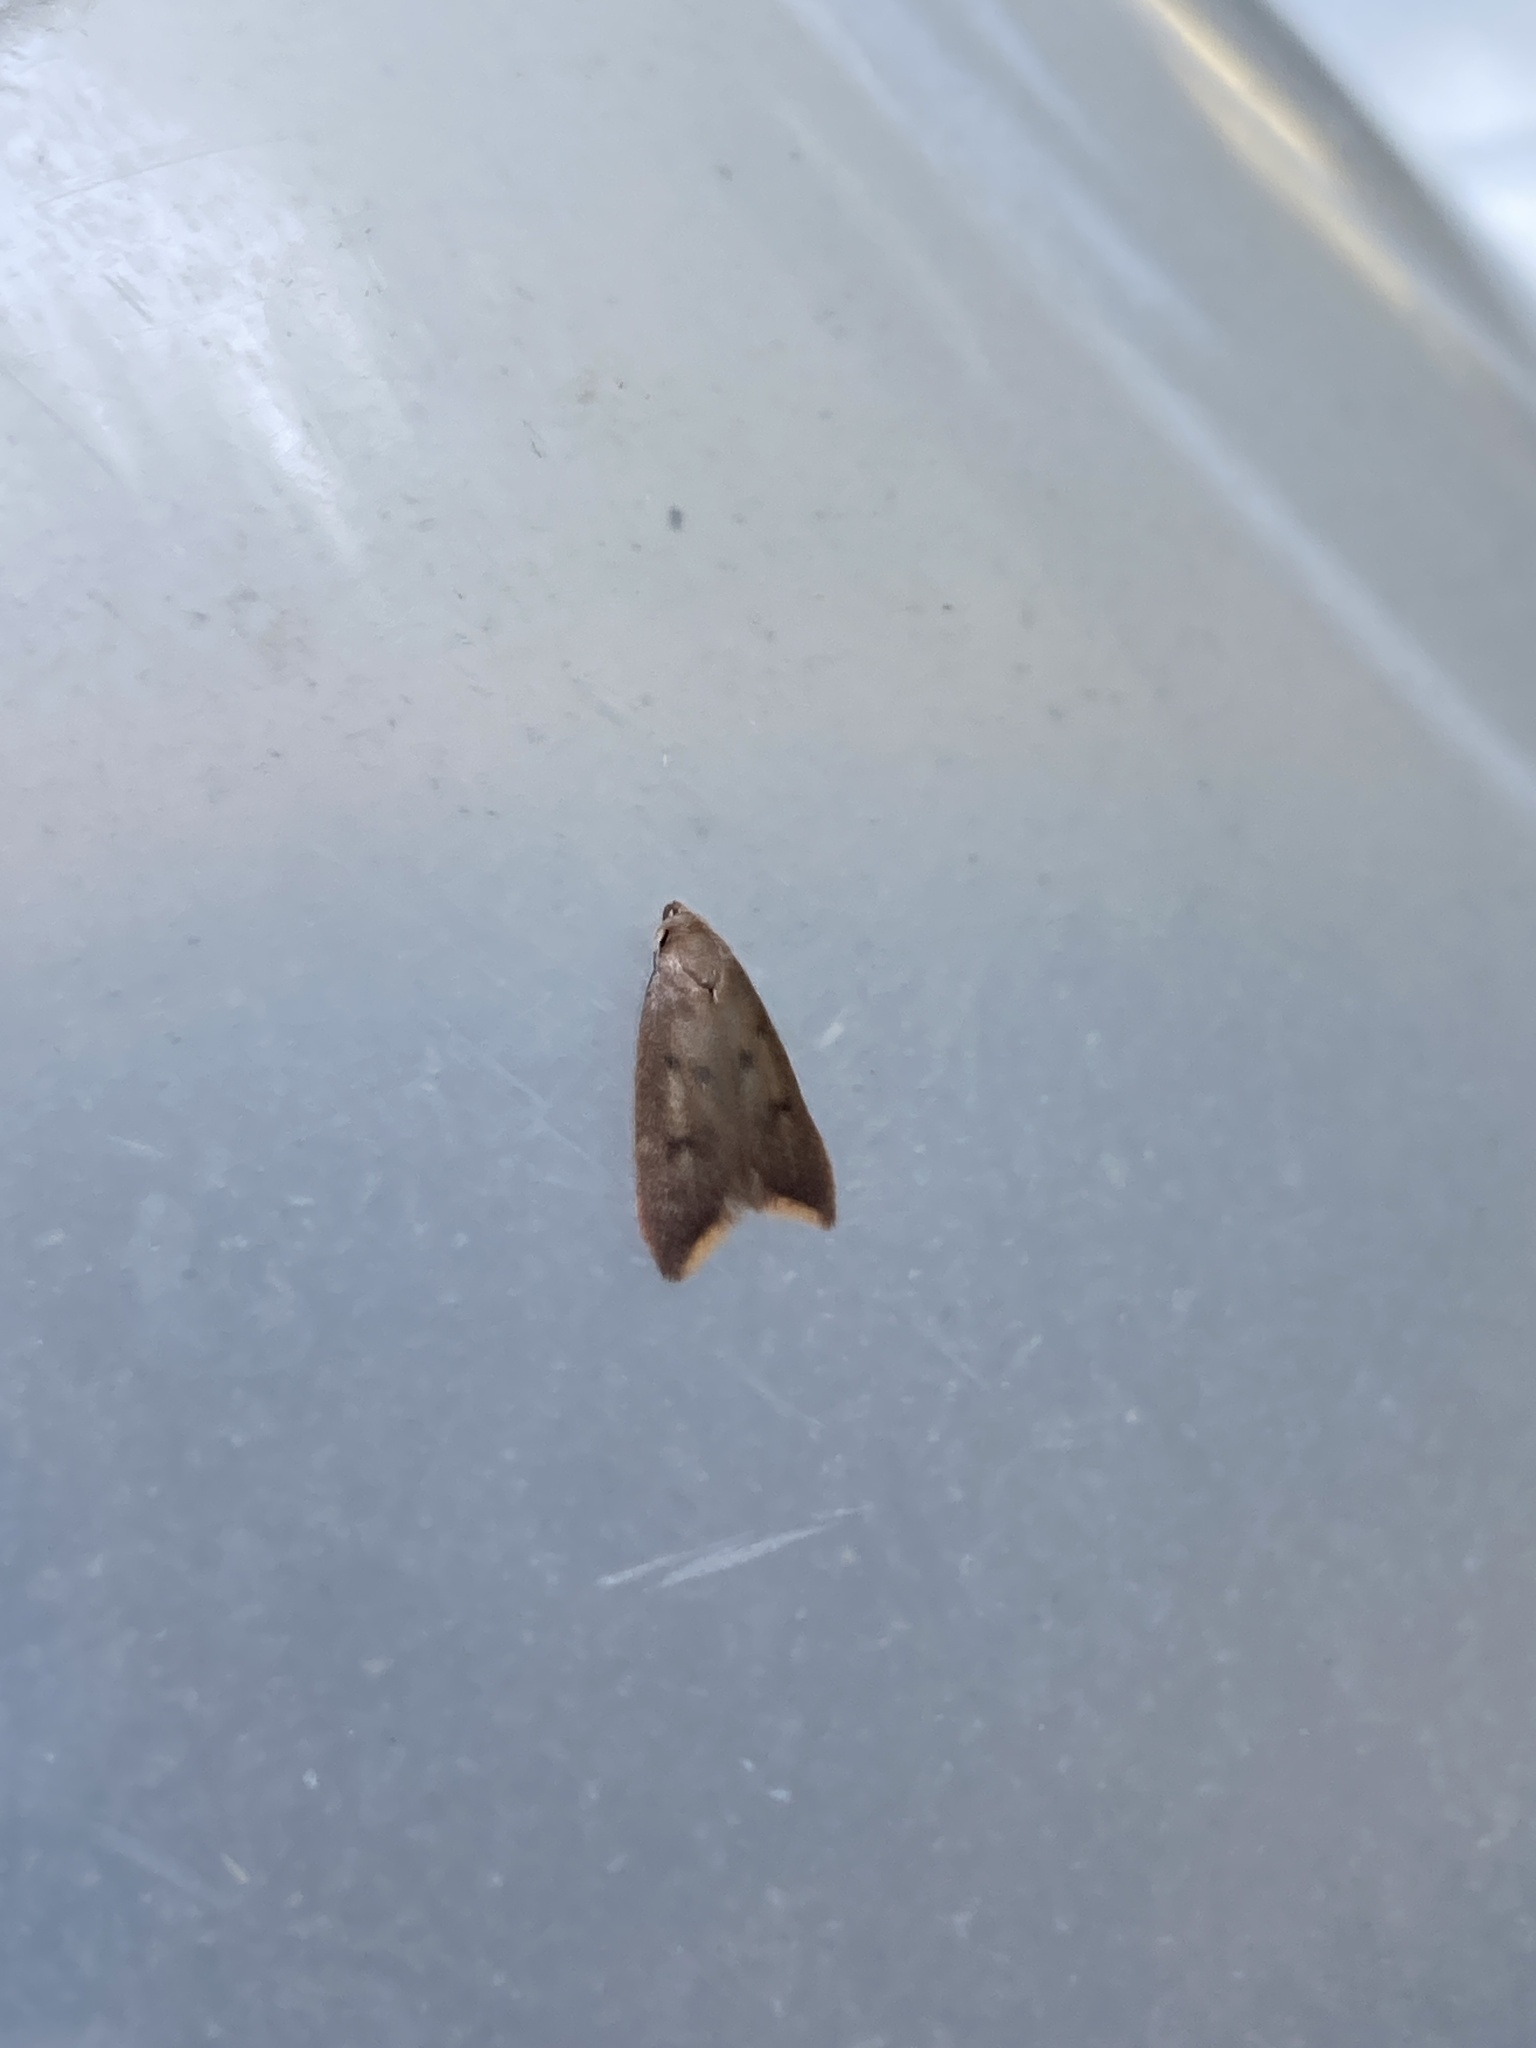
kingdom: Animalia
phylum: Arthropoda
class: Insecta
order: Lepidoptera
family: Oecophoridae
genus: Tachystola
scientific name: Tachystola acroxantha
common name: Ruddy streak
